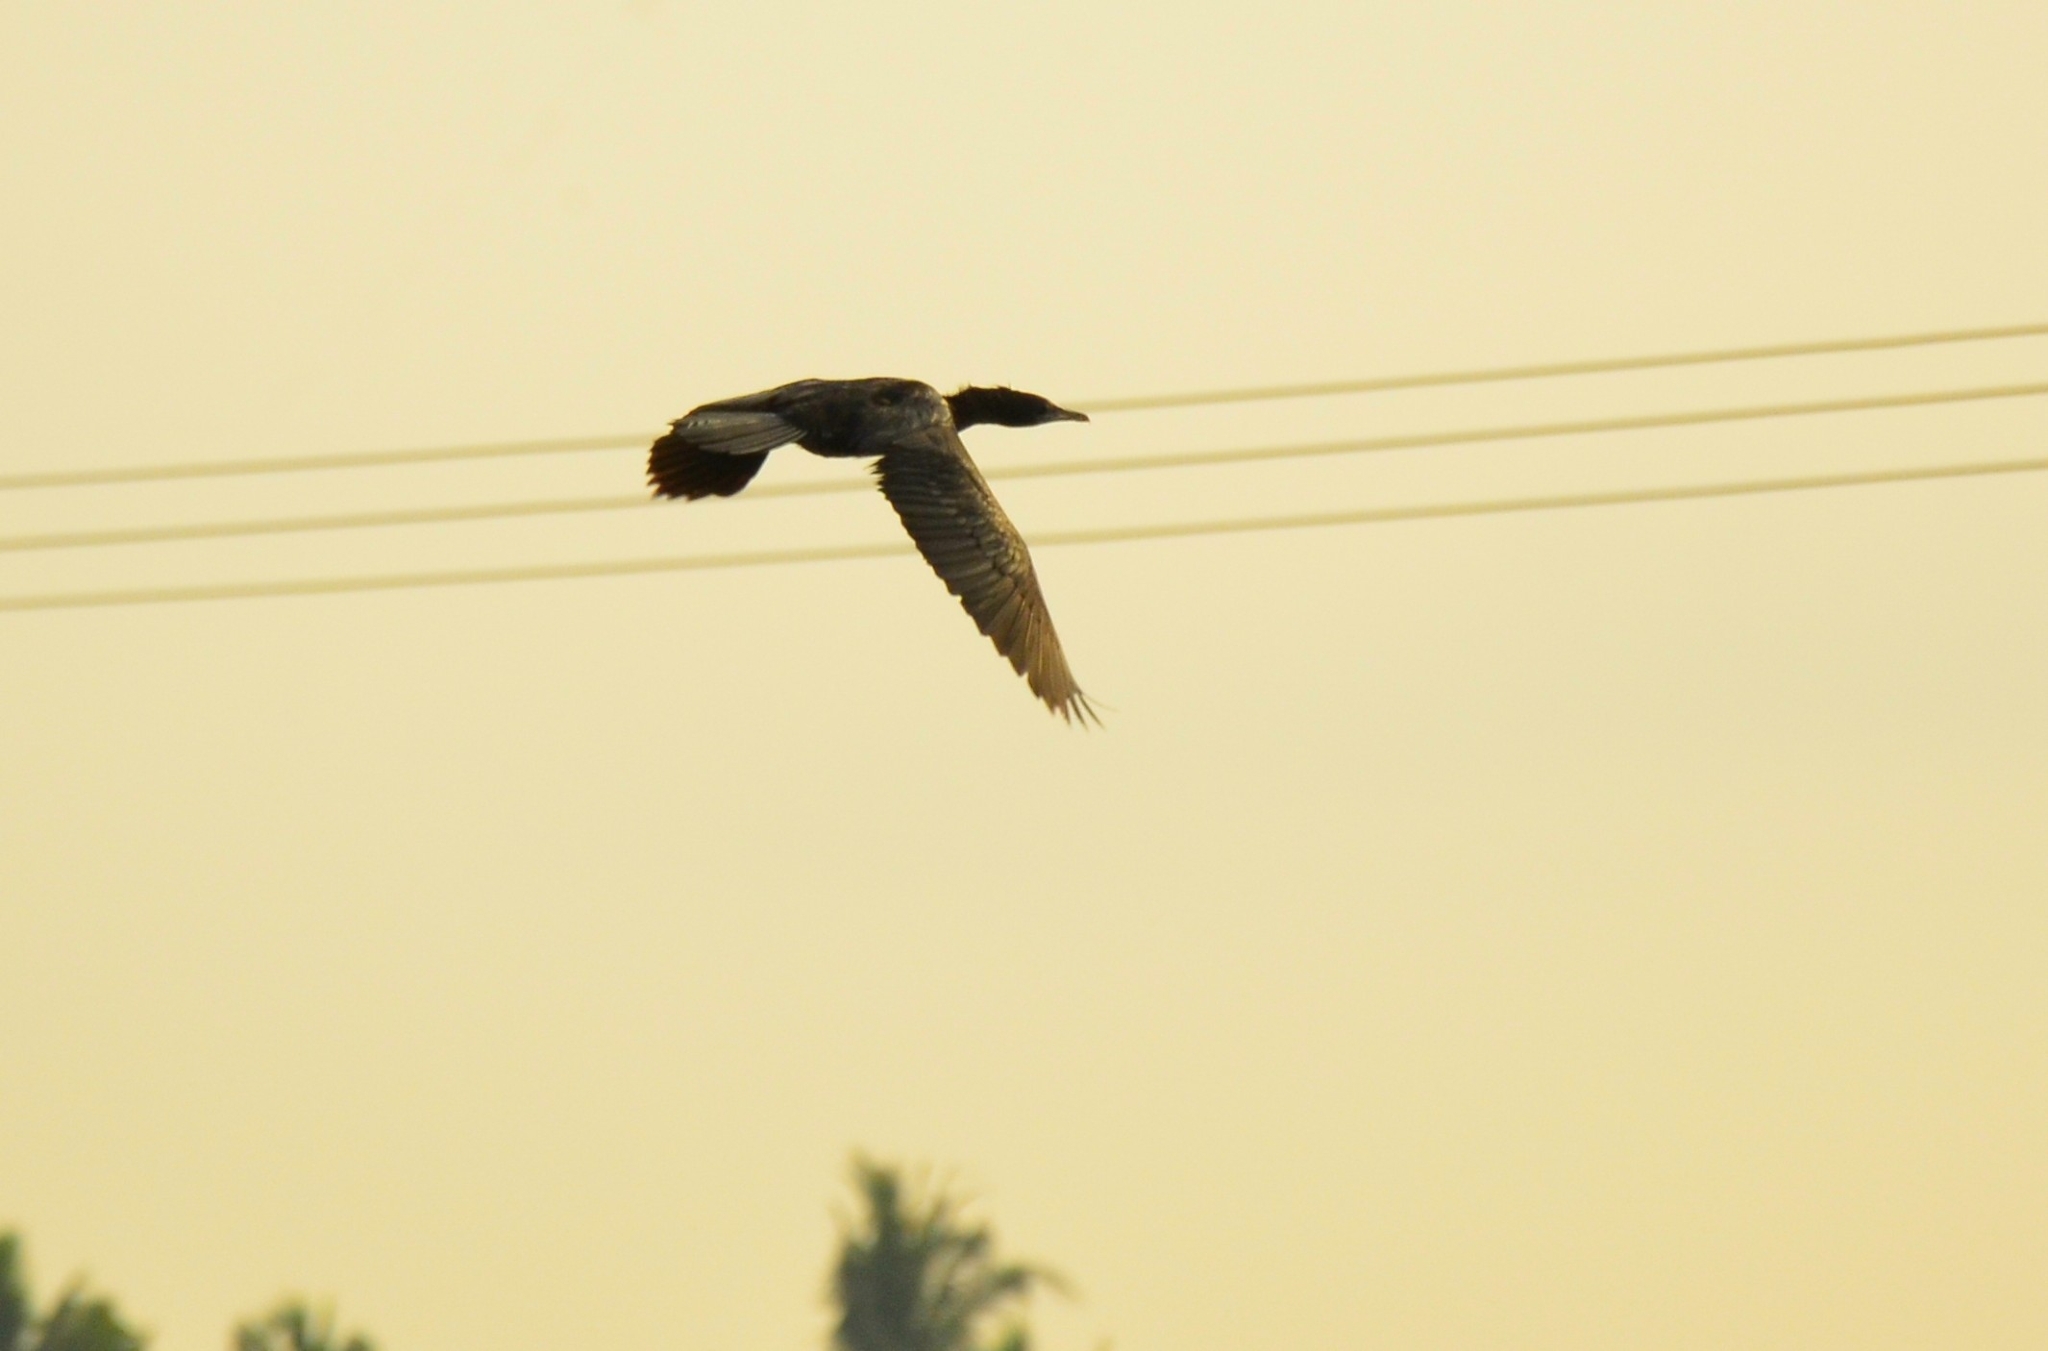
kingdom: Animalia
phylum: Chordata
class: Aves
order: Suliformes
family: Phalacrocoracidae
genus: Microcarbo
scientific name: Microcarbo niger
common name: Little cormorant
